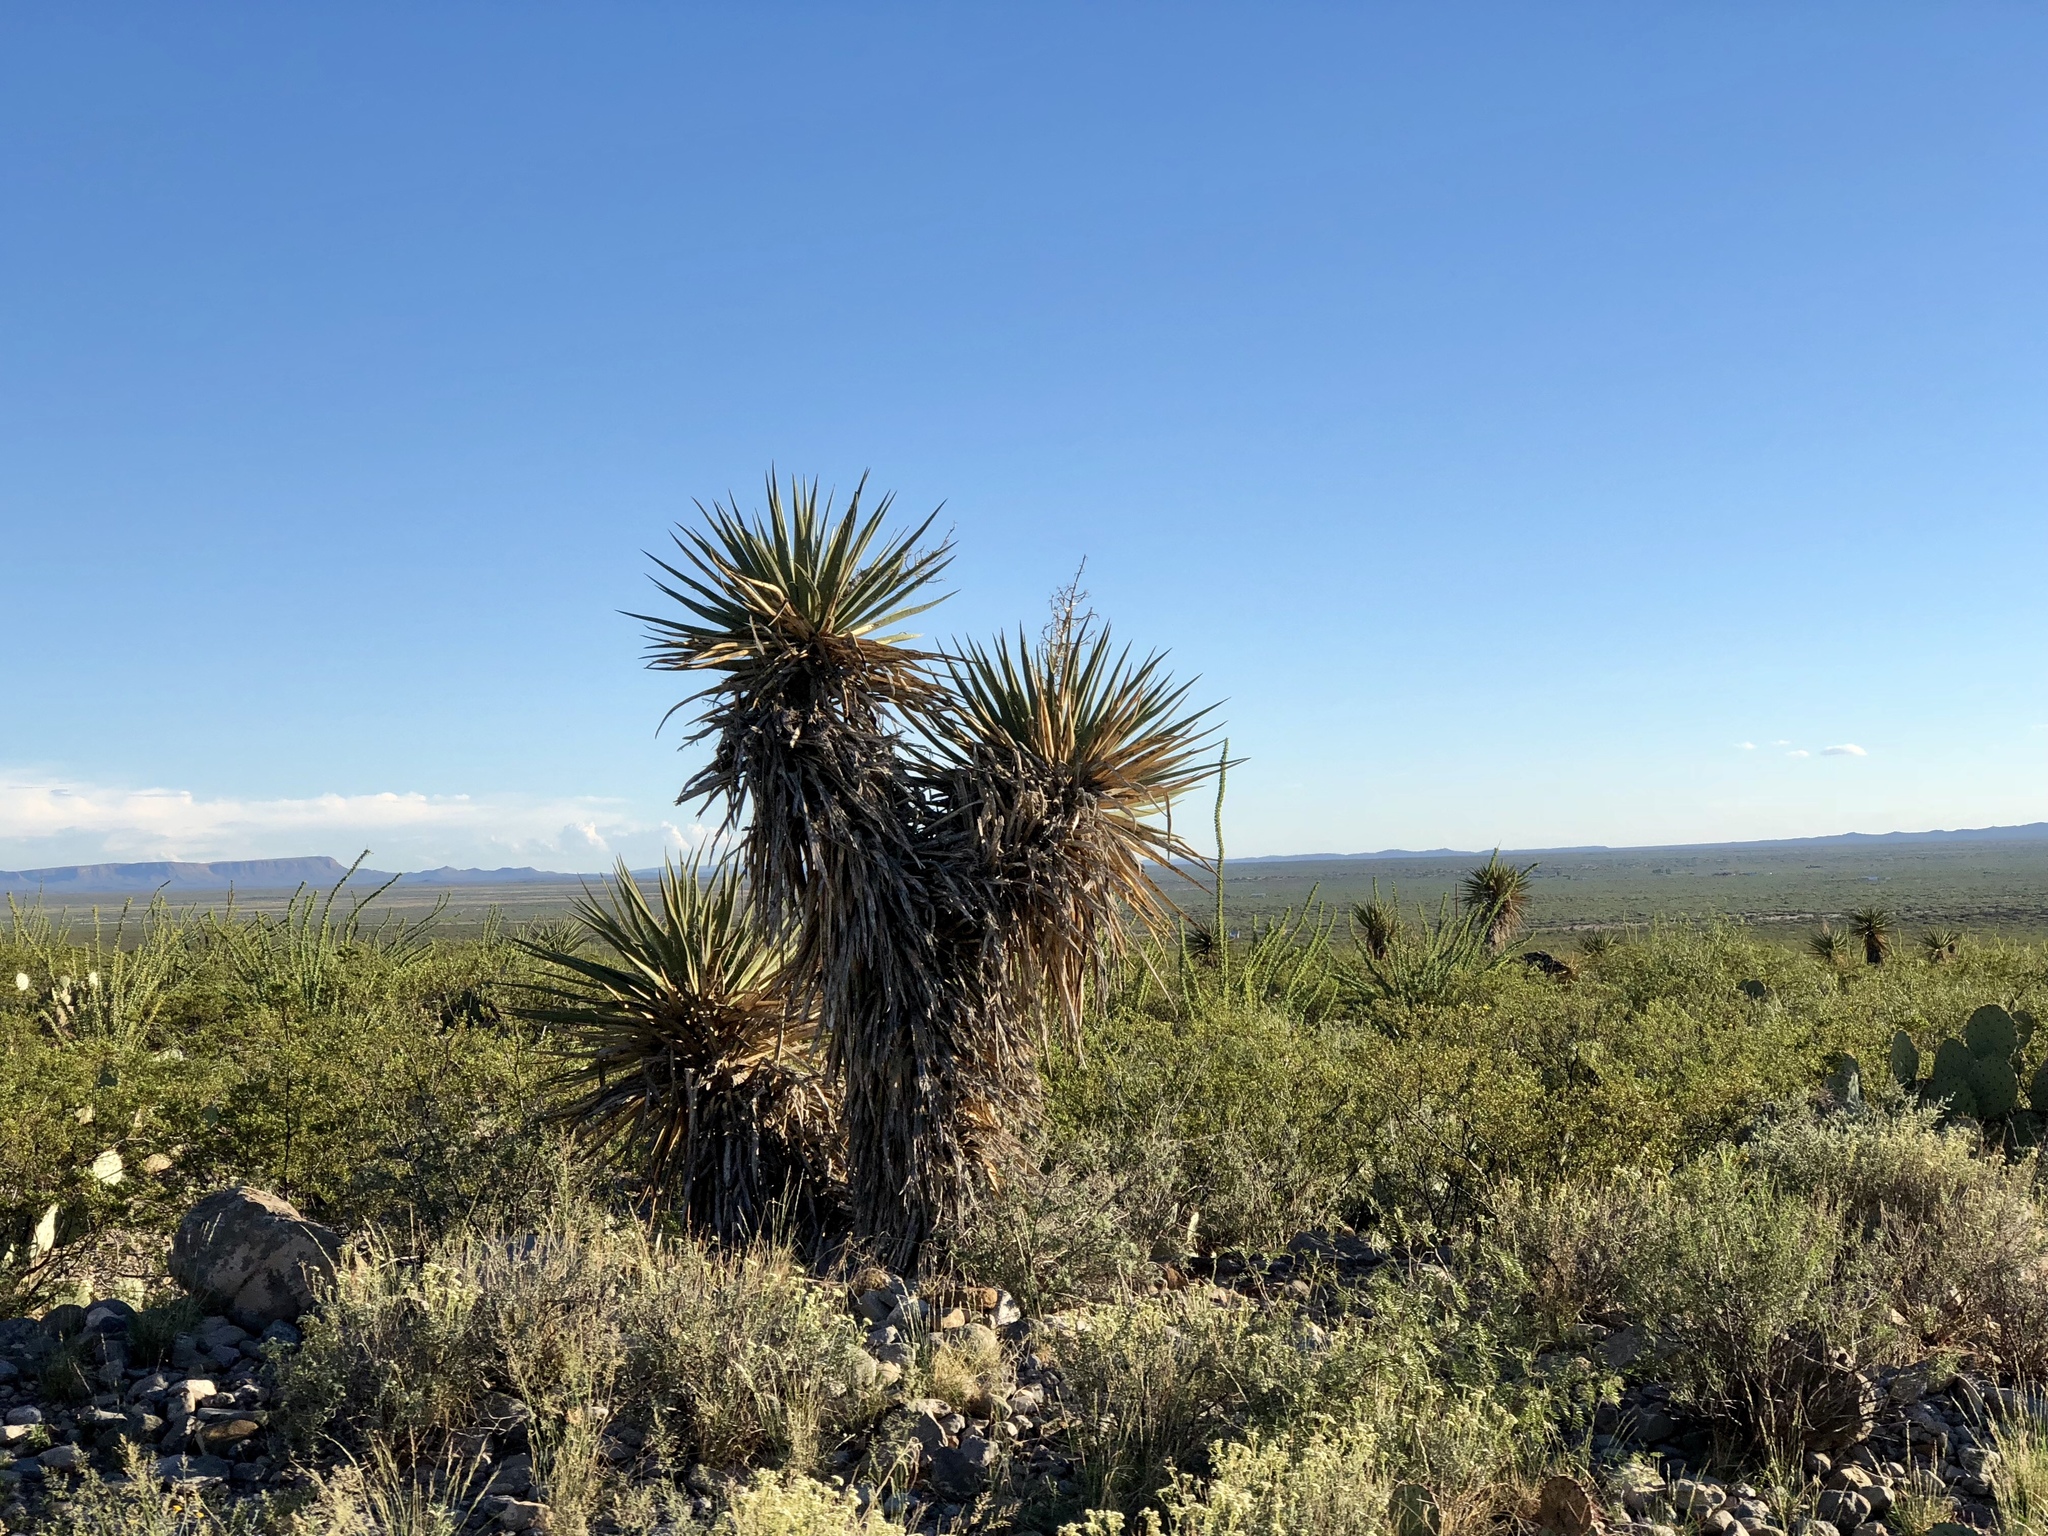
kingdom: Plantae
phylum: Tracheophyta
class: Liliopsida
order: Asparagales
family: Asparagaceae
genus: Yucca
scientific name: Yucca treculiana
